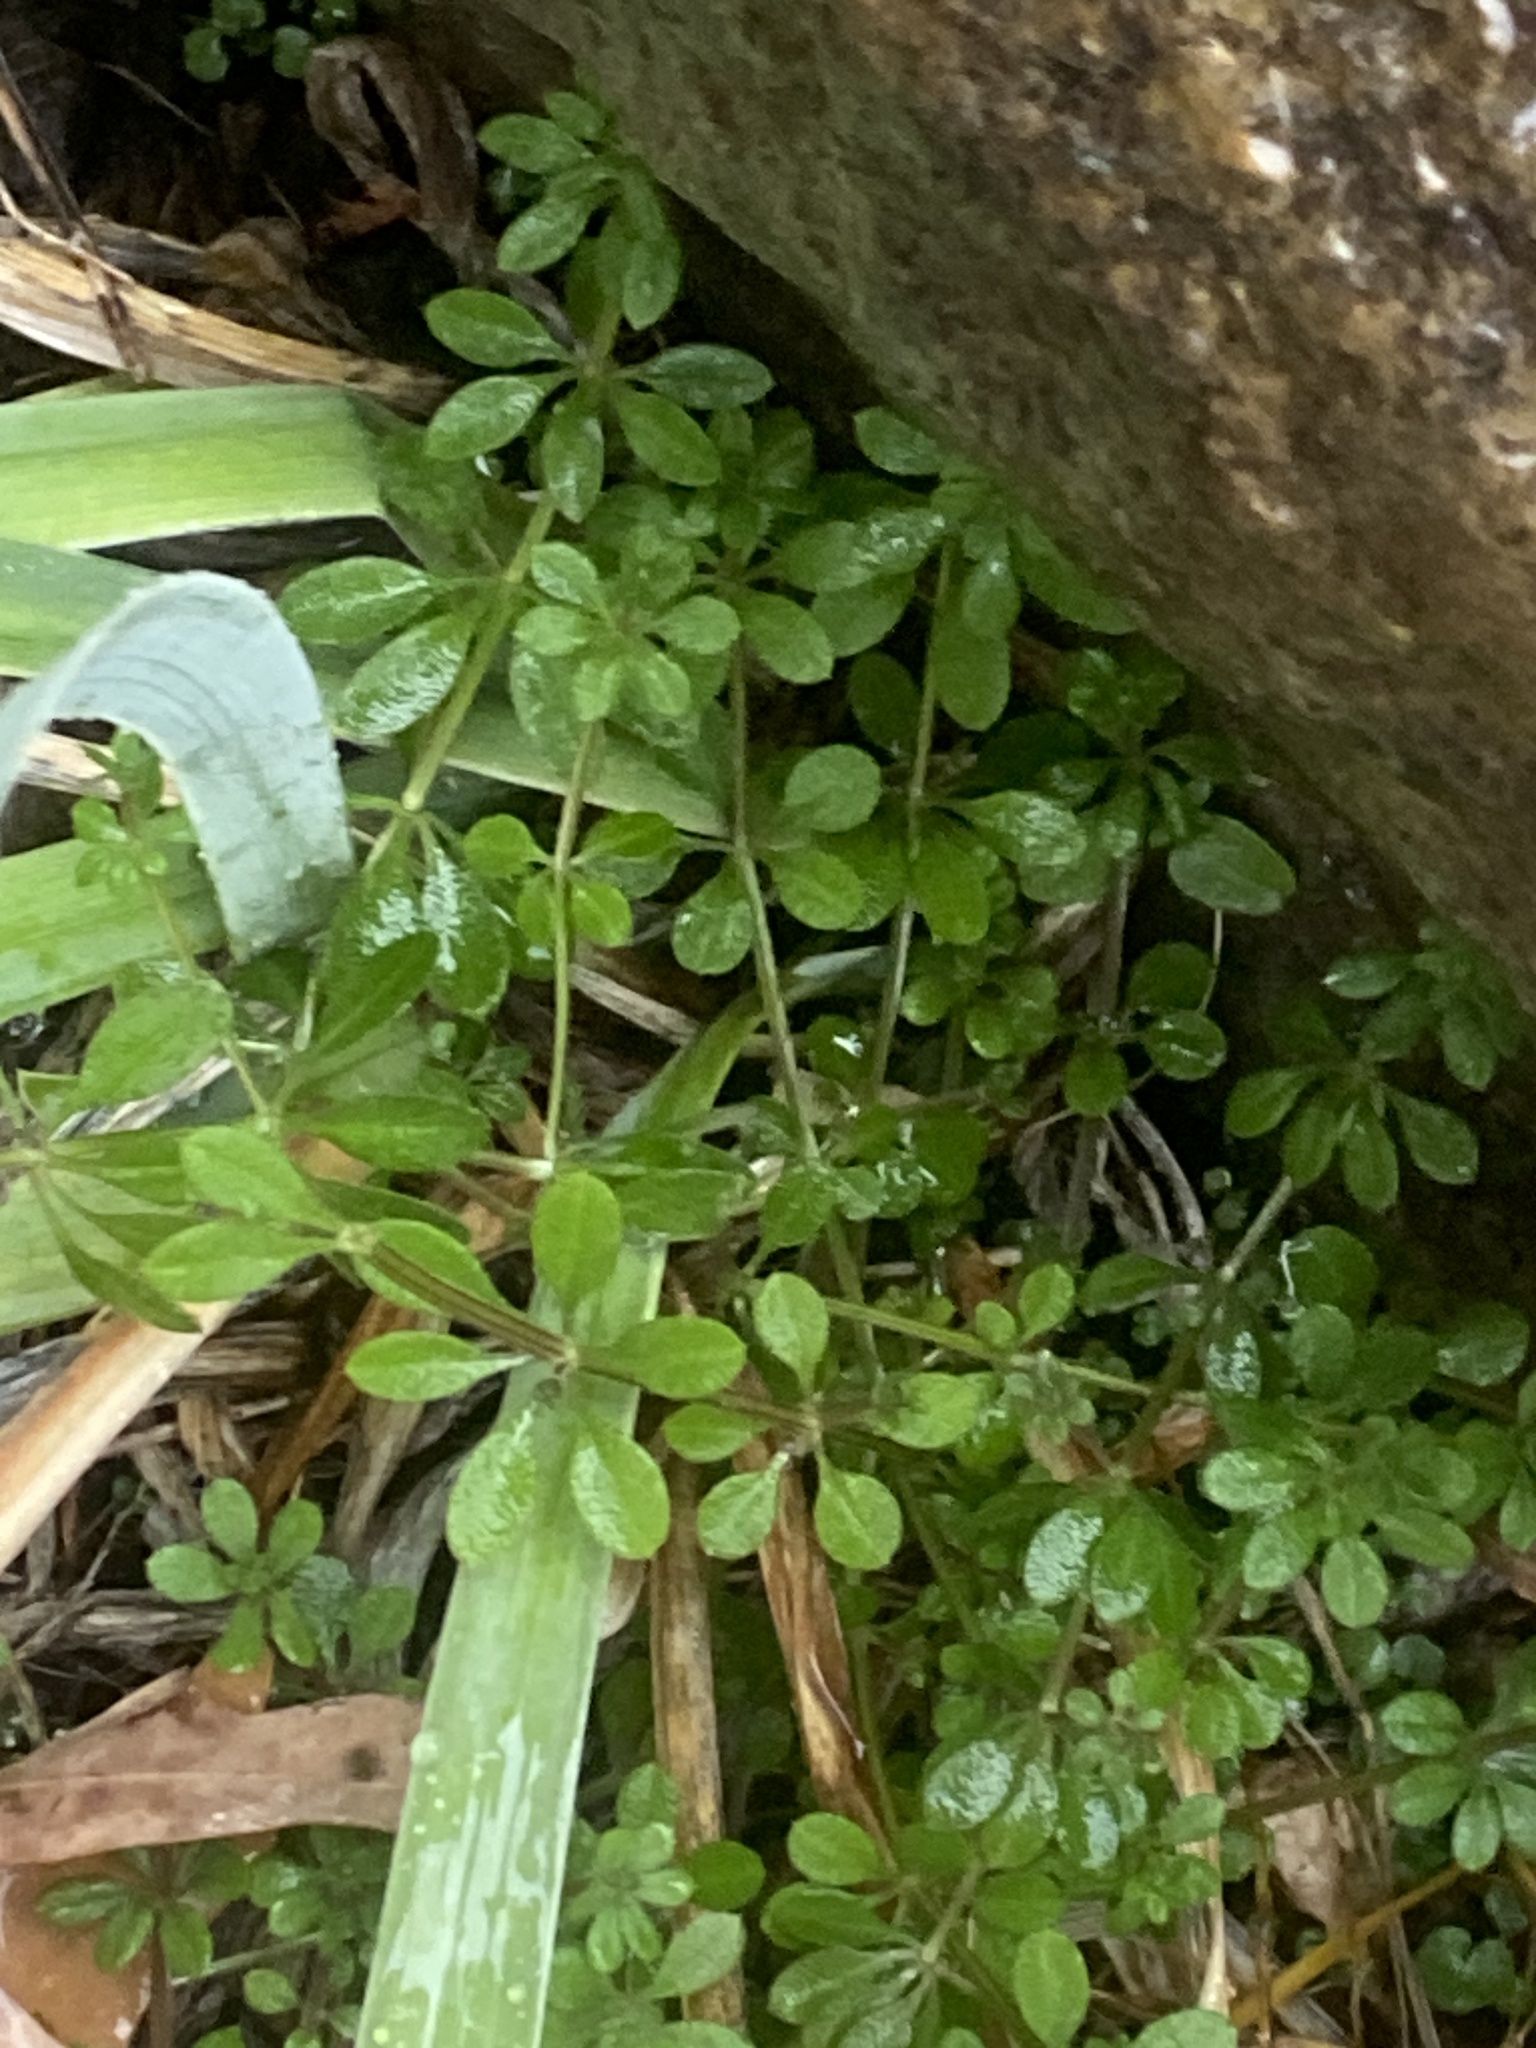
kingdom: Plantae
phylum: Tracheophyta
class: Magnoliopsida
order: Gentianales
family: Rubiaceae
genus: Galium
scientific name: Galium aparine
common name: Cleavers
